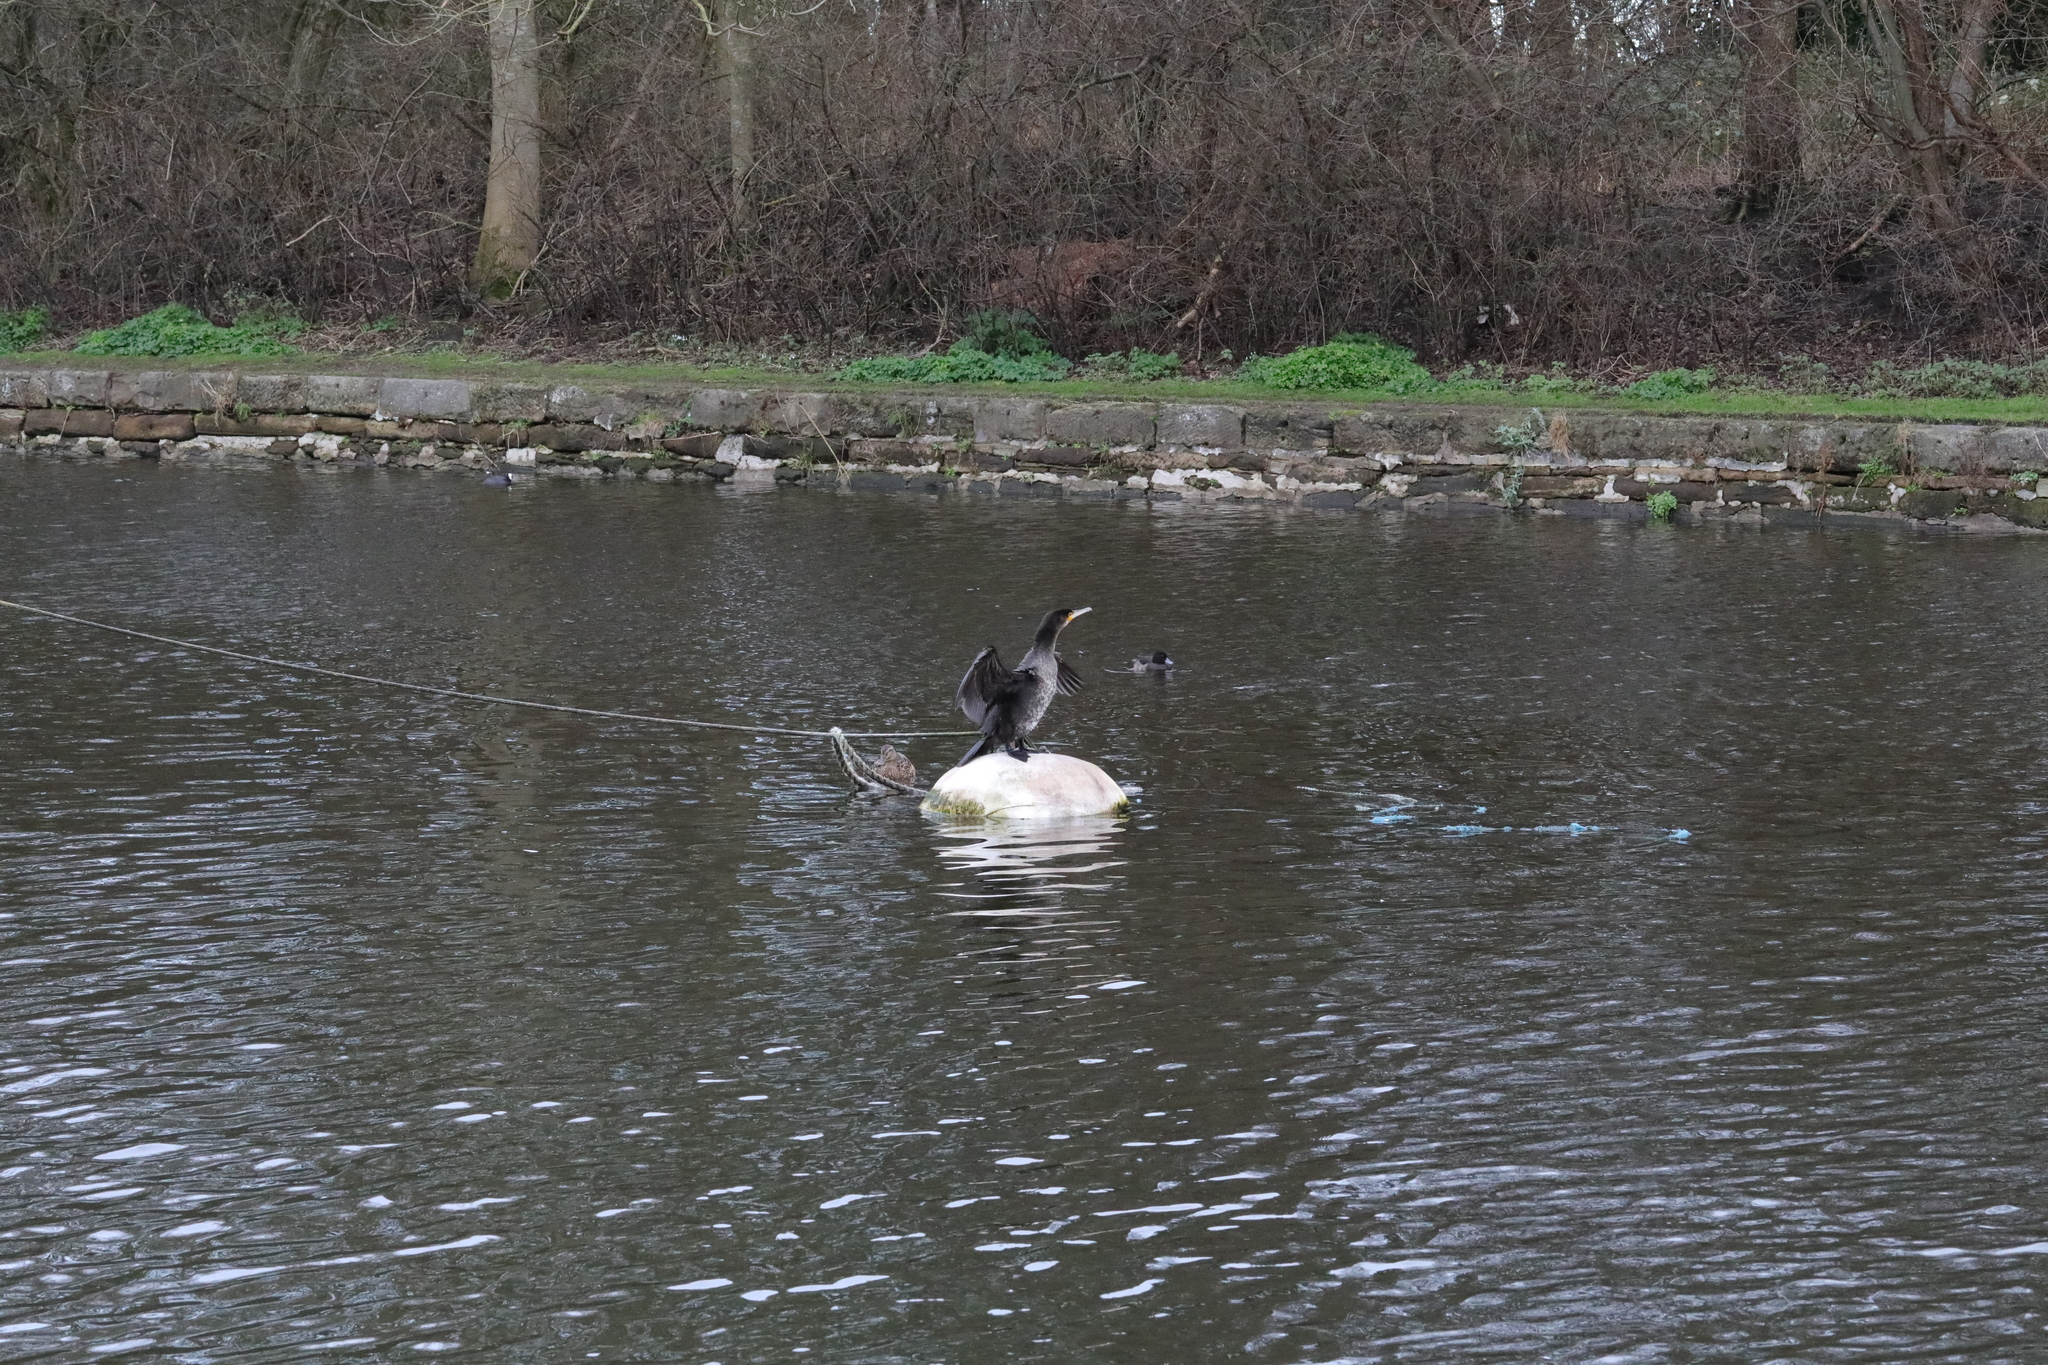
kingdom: Animalia
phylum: Chordata
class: Aves
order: Suliformes
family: Phalacrocoracidae
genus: Phalacrocorax
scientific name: Phalacrocorax carbo
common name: Great cormorant
